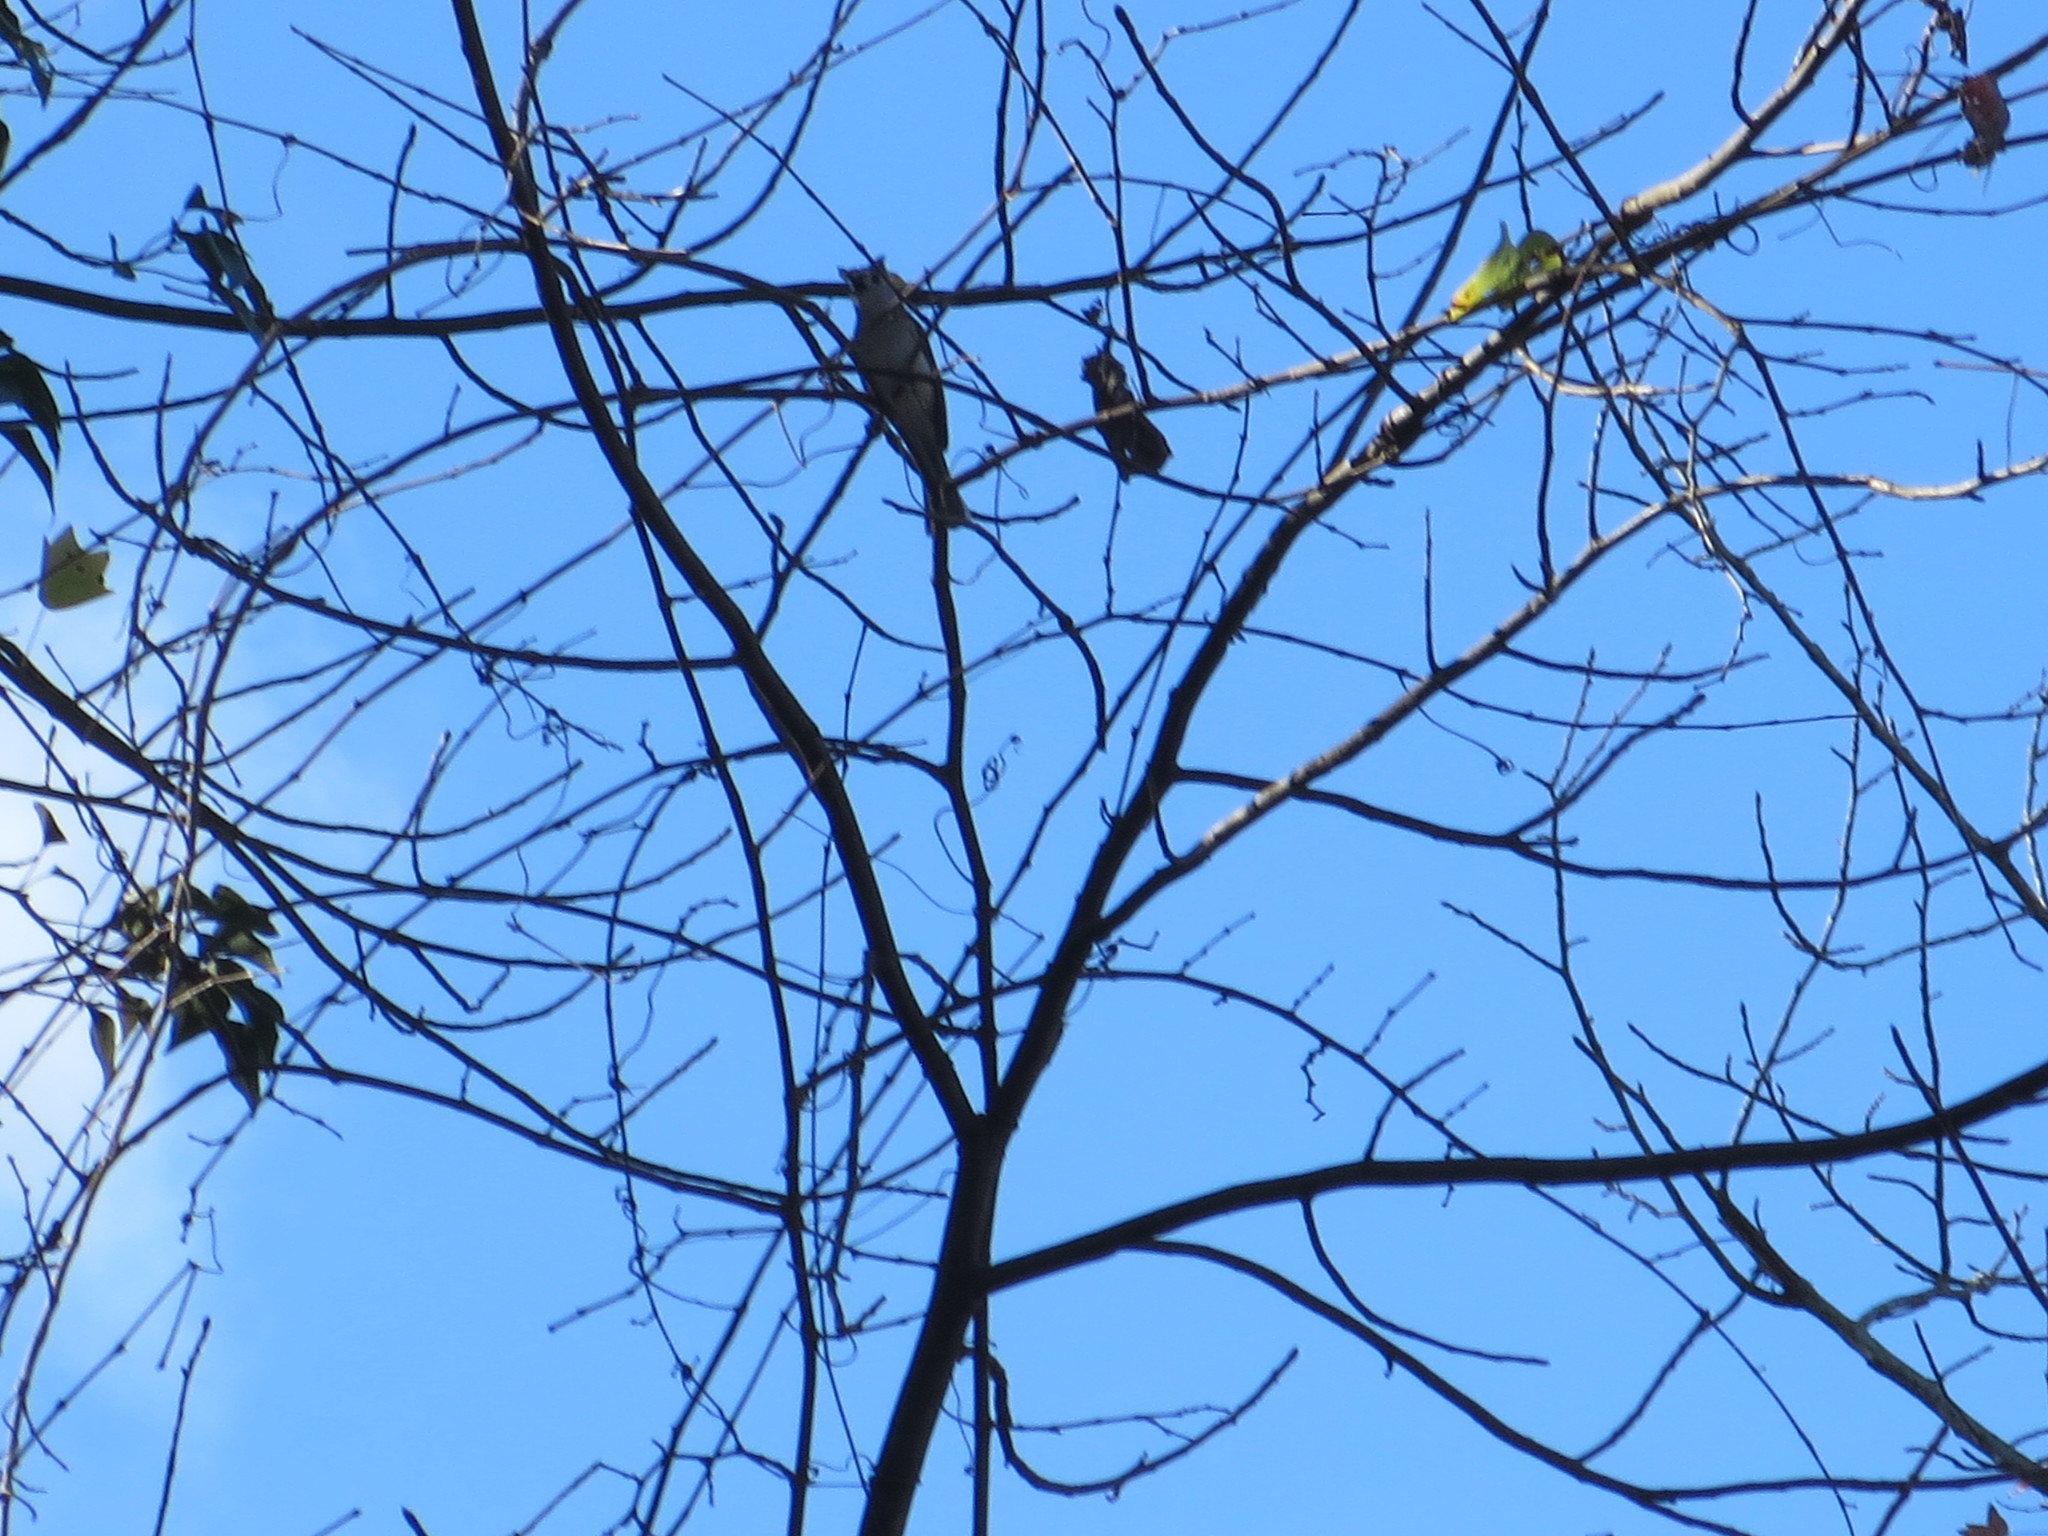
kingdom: Animalia
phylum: Chordata
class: Aves
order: Passeriformes
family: Paridae
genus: Baeolophus
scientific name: Baeolophus bicolor
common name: Tufted titmouse
